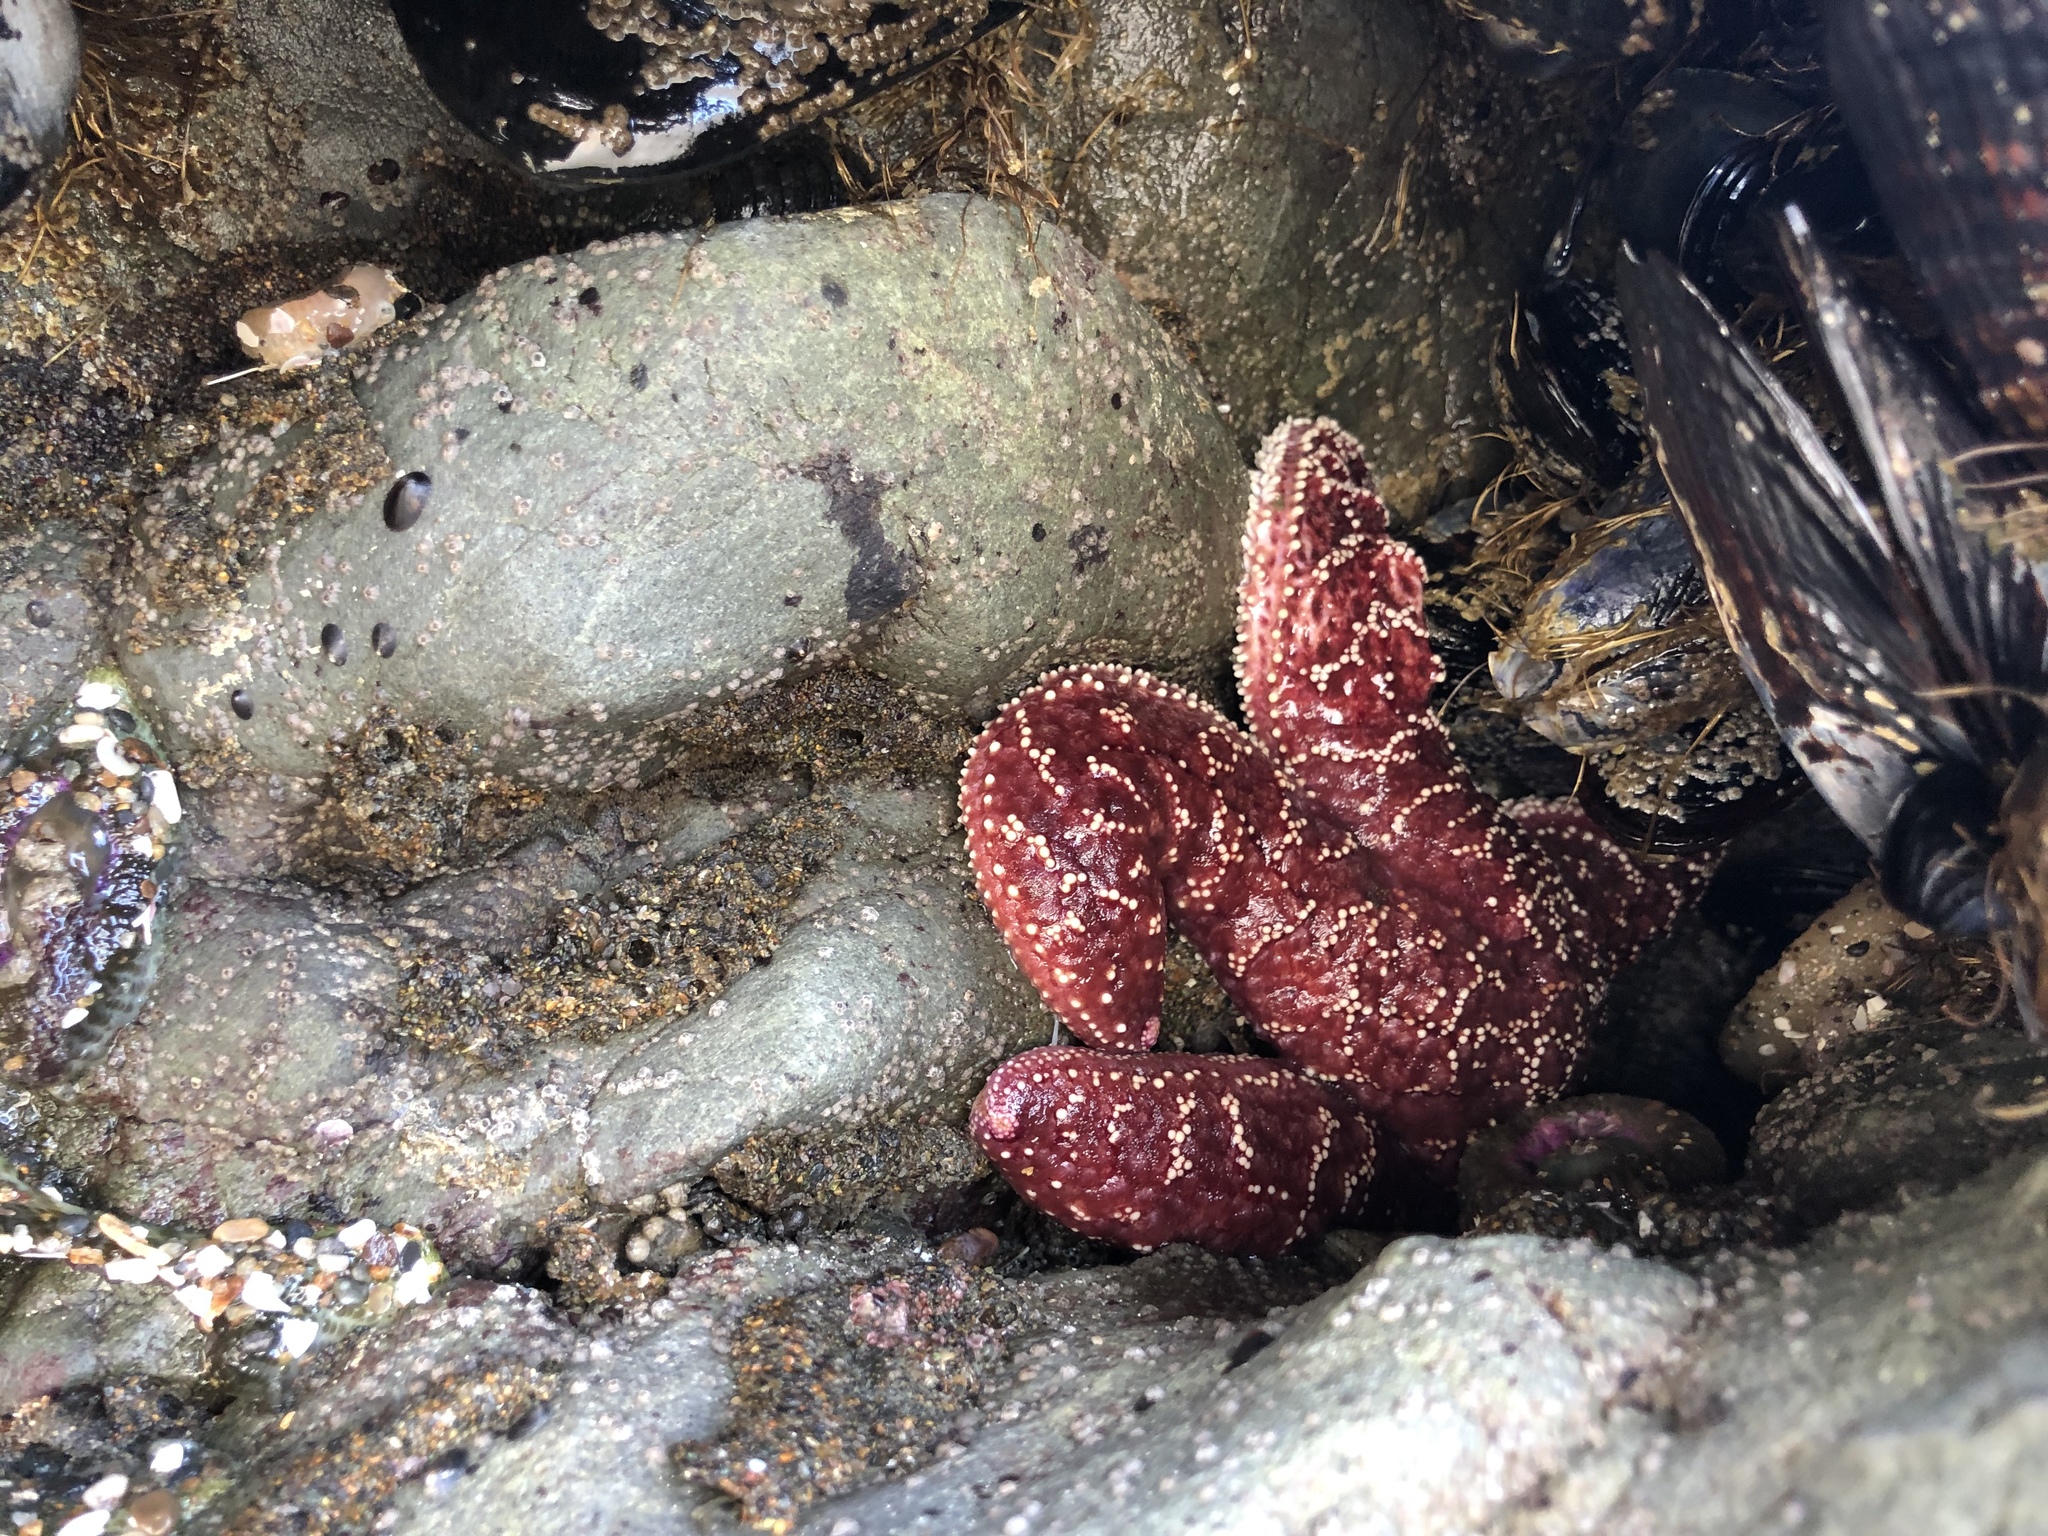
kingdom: Animalia
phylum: Echinodermata
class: Asteroidea
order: Forcipulatida
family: Asteriidae
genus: Pisaster
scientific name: Pisaster ochraceus
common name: Ochre stars
